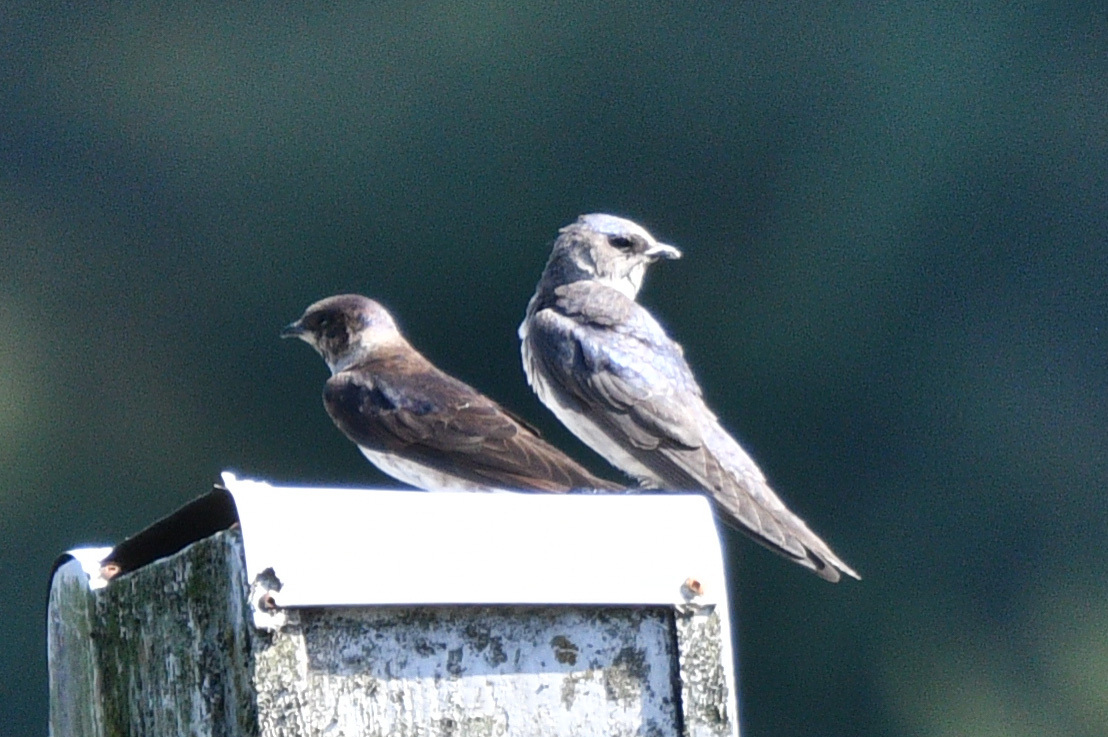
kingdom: Animalia
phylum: Chordata
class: Aves
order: Passeriformes
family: Hirundinidae
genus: Progne
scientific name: Progne subis
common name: Purple martin
